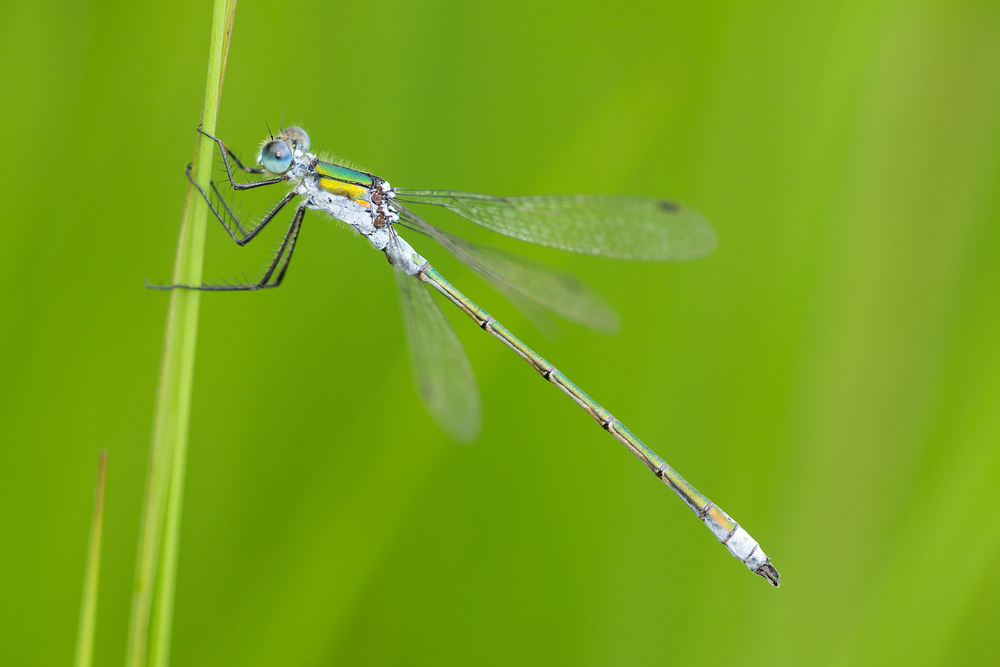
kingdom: Animalia
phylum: Arthropoda
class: Insecta
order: Odonata
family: Lestidae
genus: Lestes
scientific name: Lestes sponsa
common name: Common spreadwing
